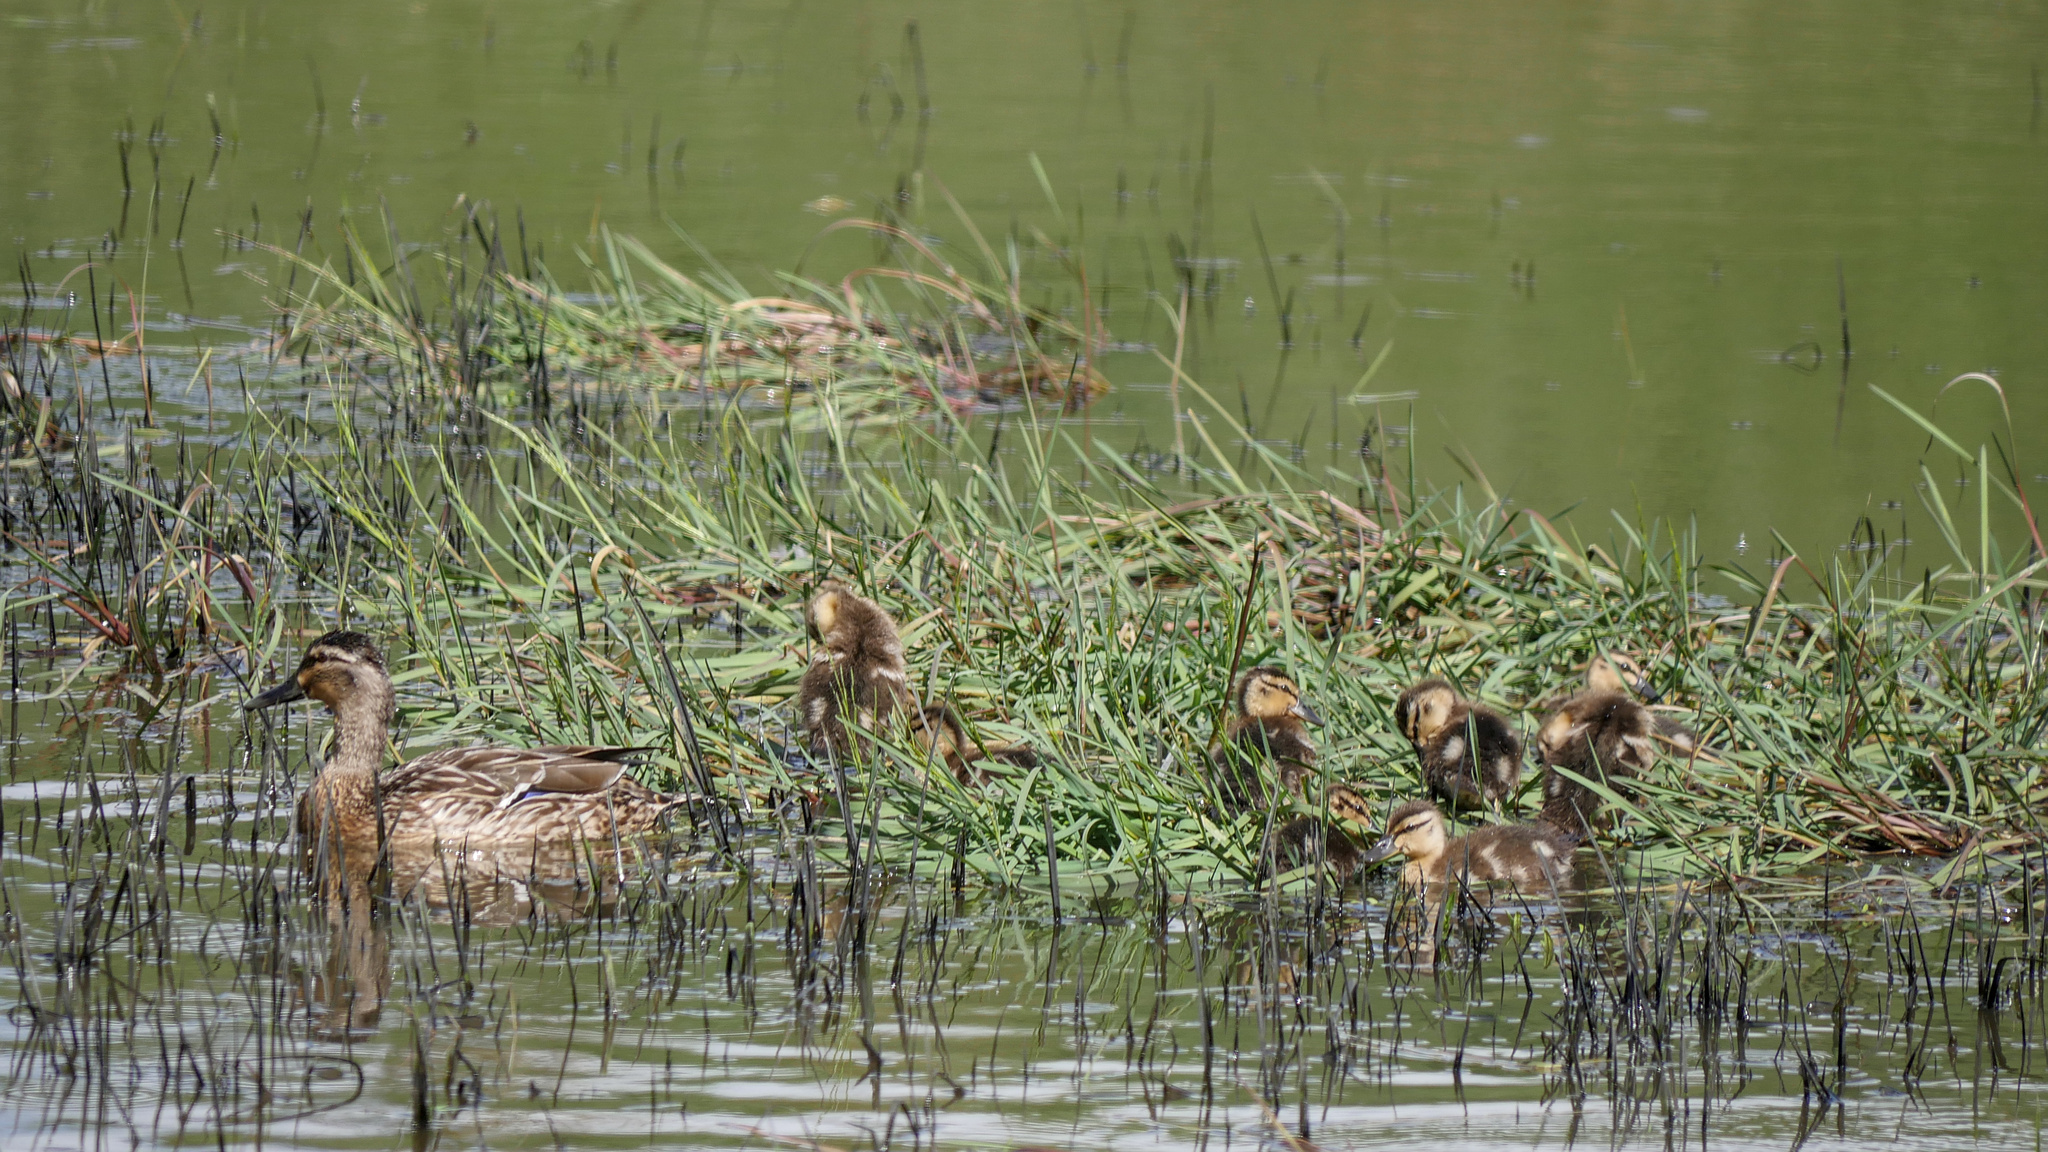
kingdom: Animalia
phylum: Chordata
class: Aves
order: Anseriformes
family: Anatidae
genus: Anas
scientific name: Anas
